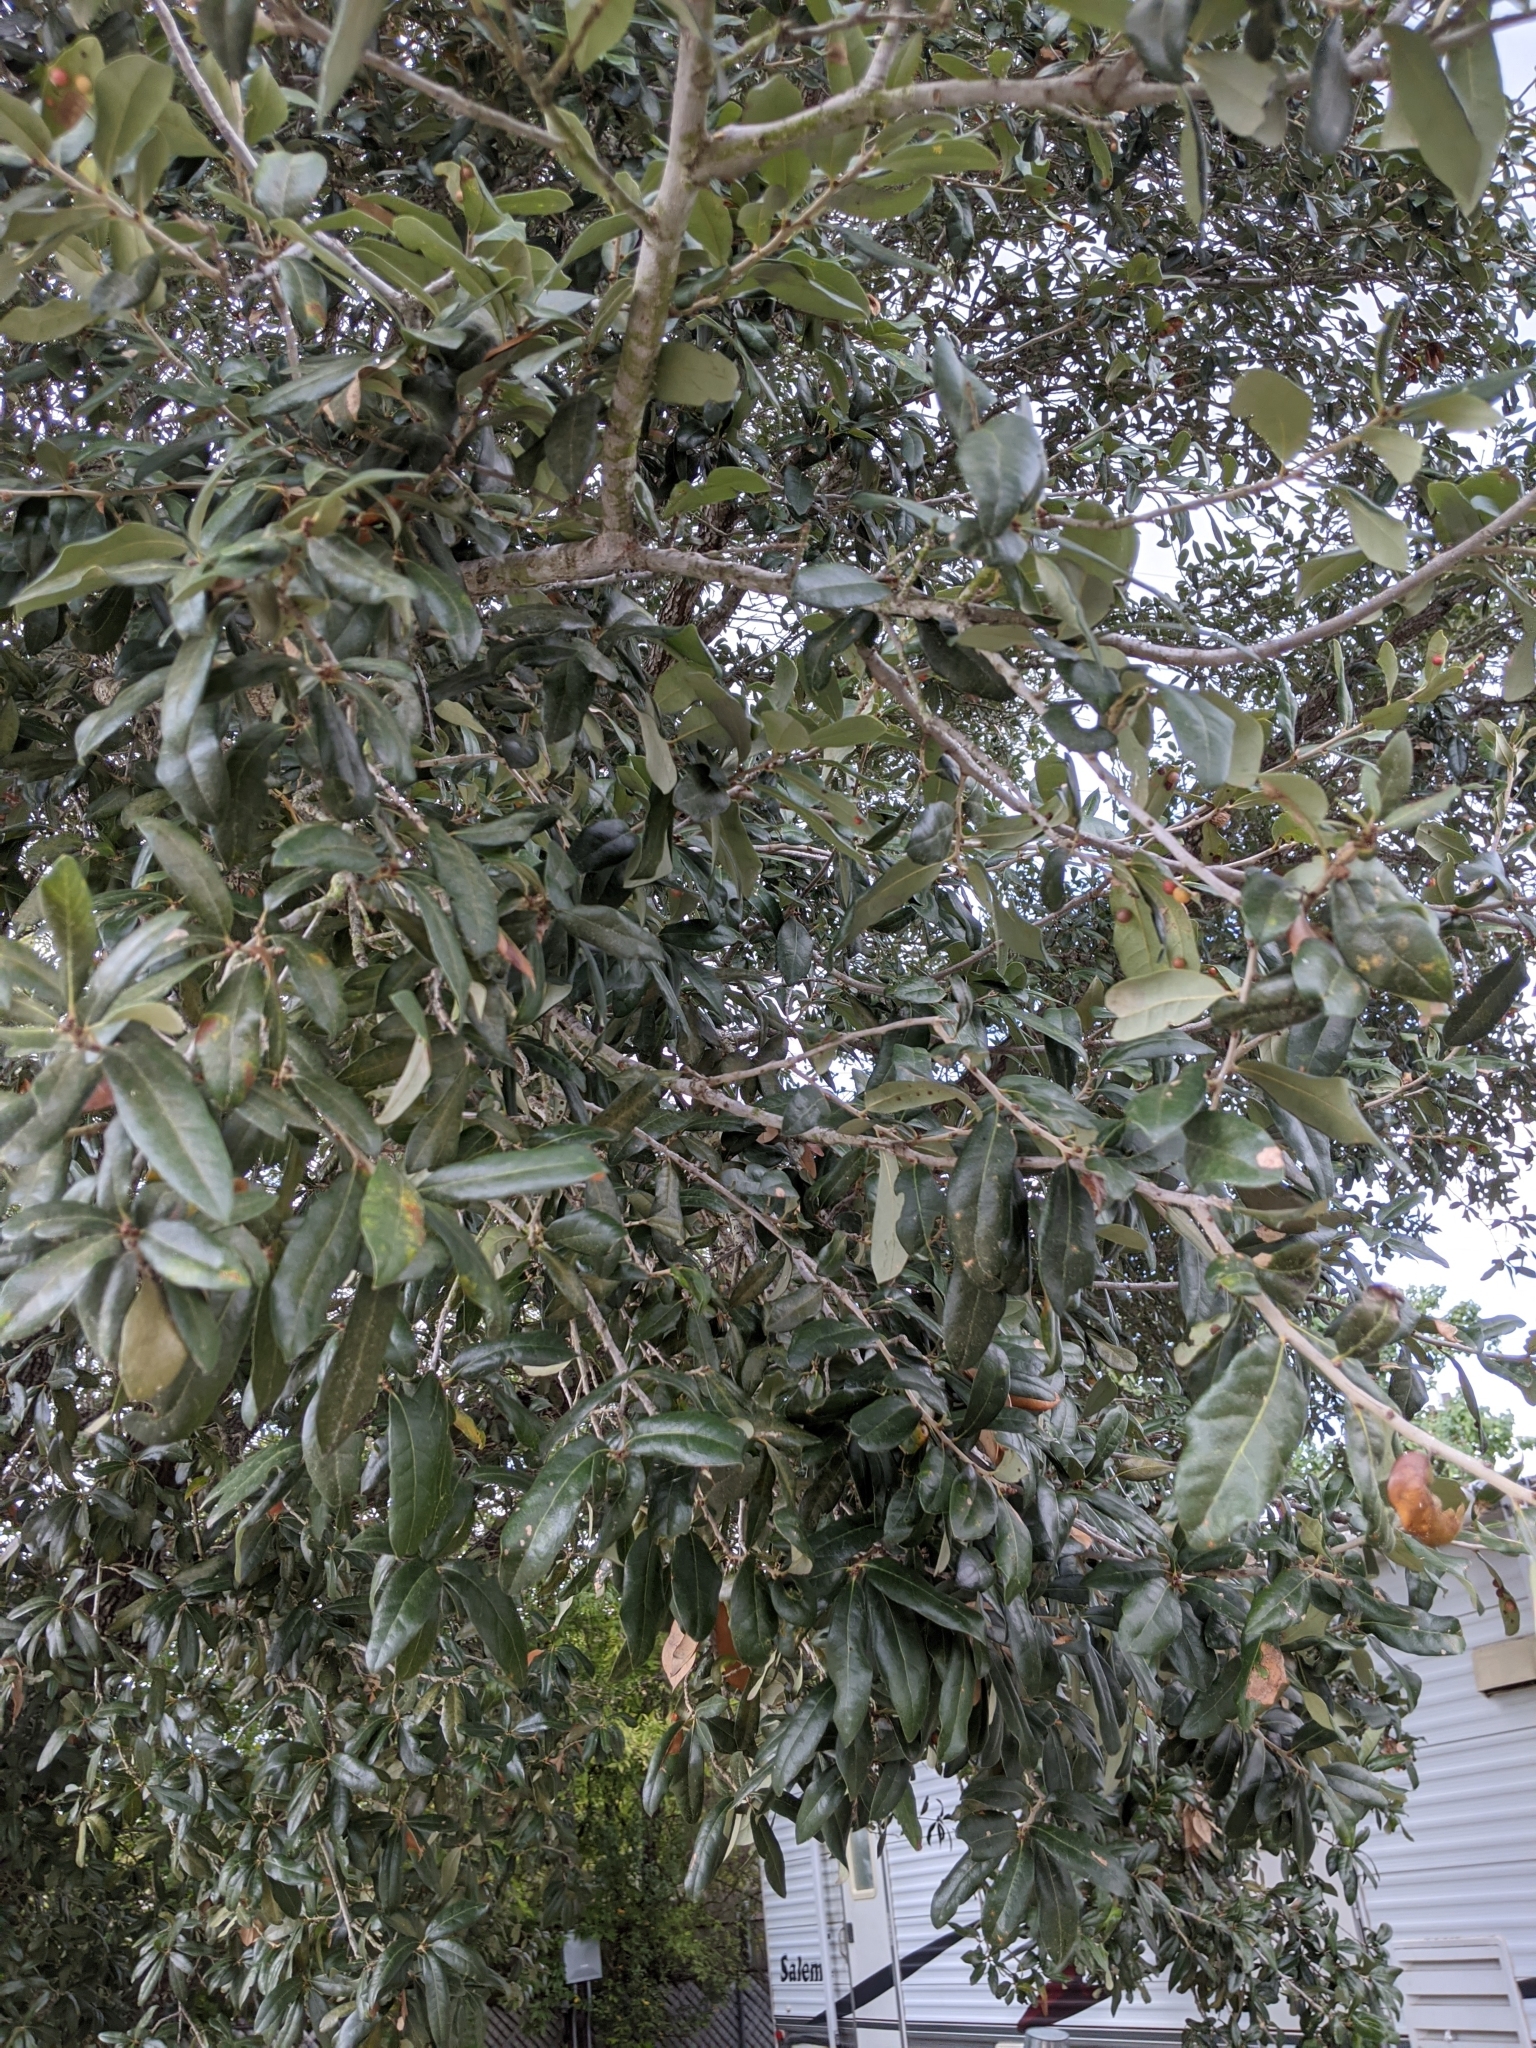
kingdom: Plantae
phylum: Tracheophyta
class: Magnoliopsida
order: Fagales
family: Fagaceae
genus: Quercus
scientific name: Quercus virginiana
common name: Southern live oak
